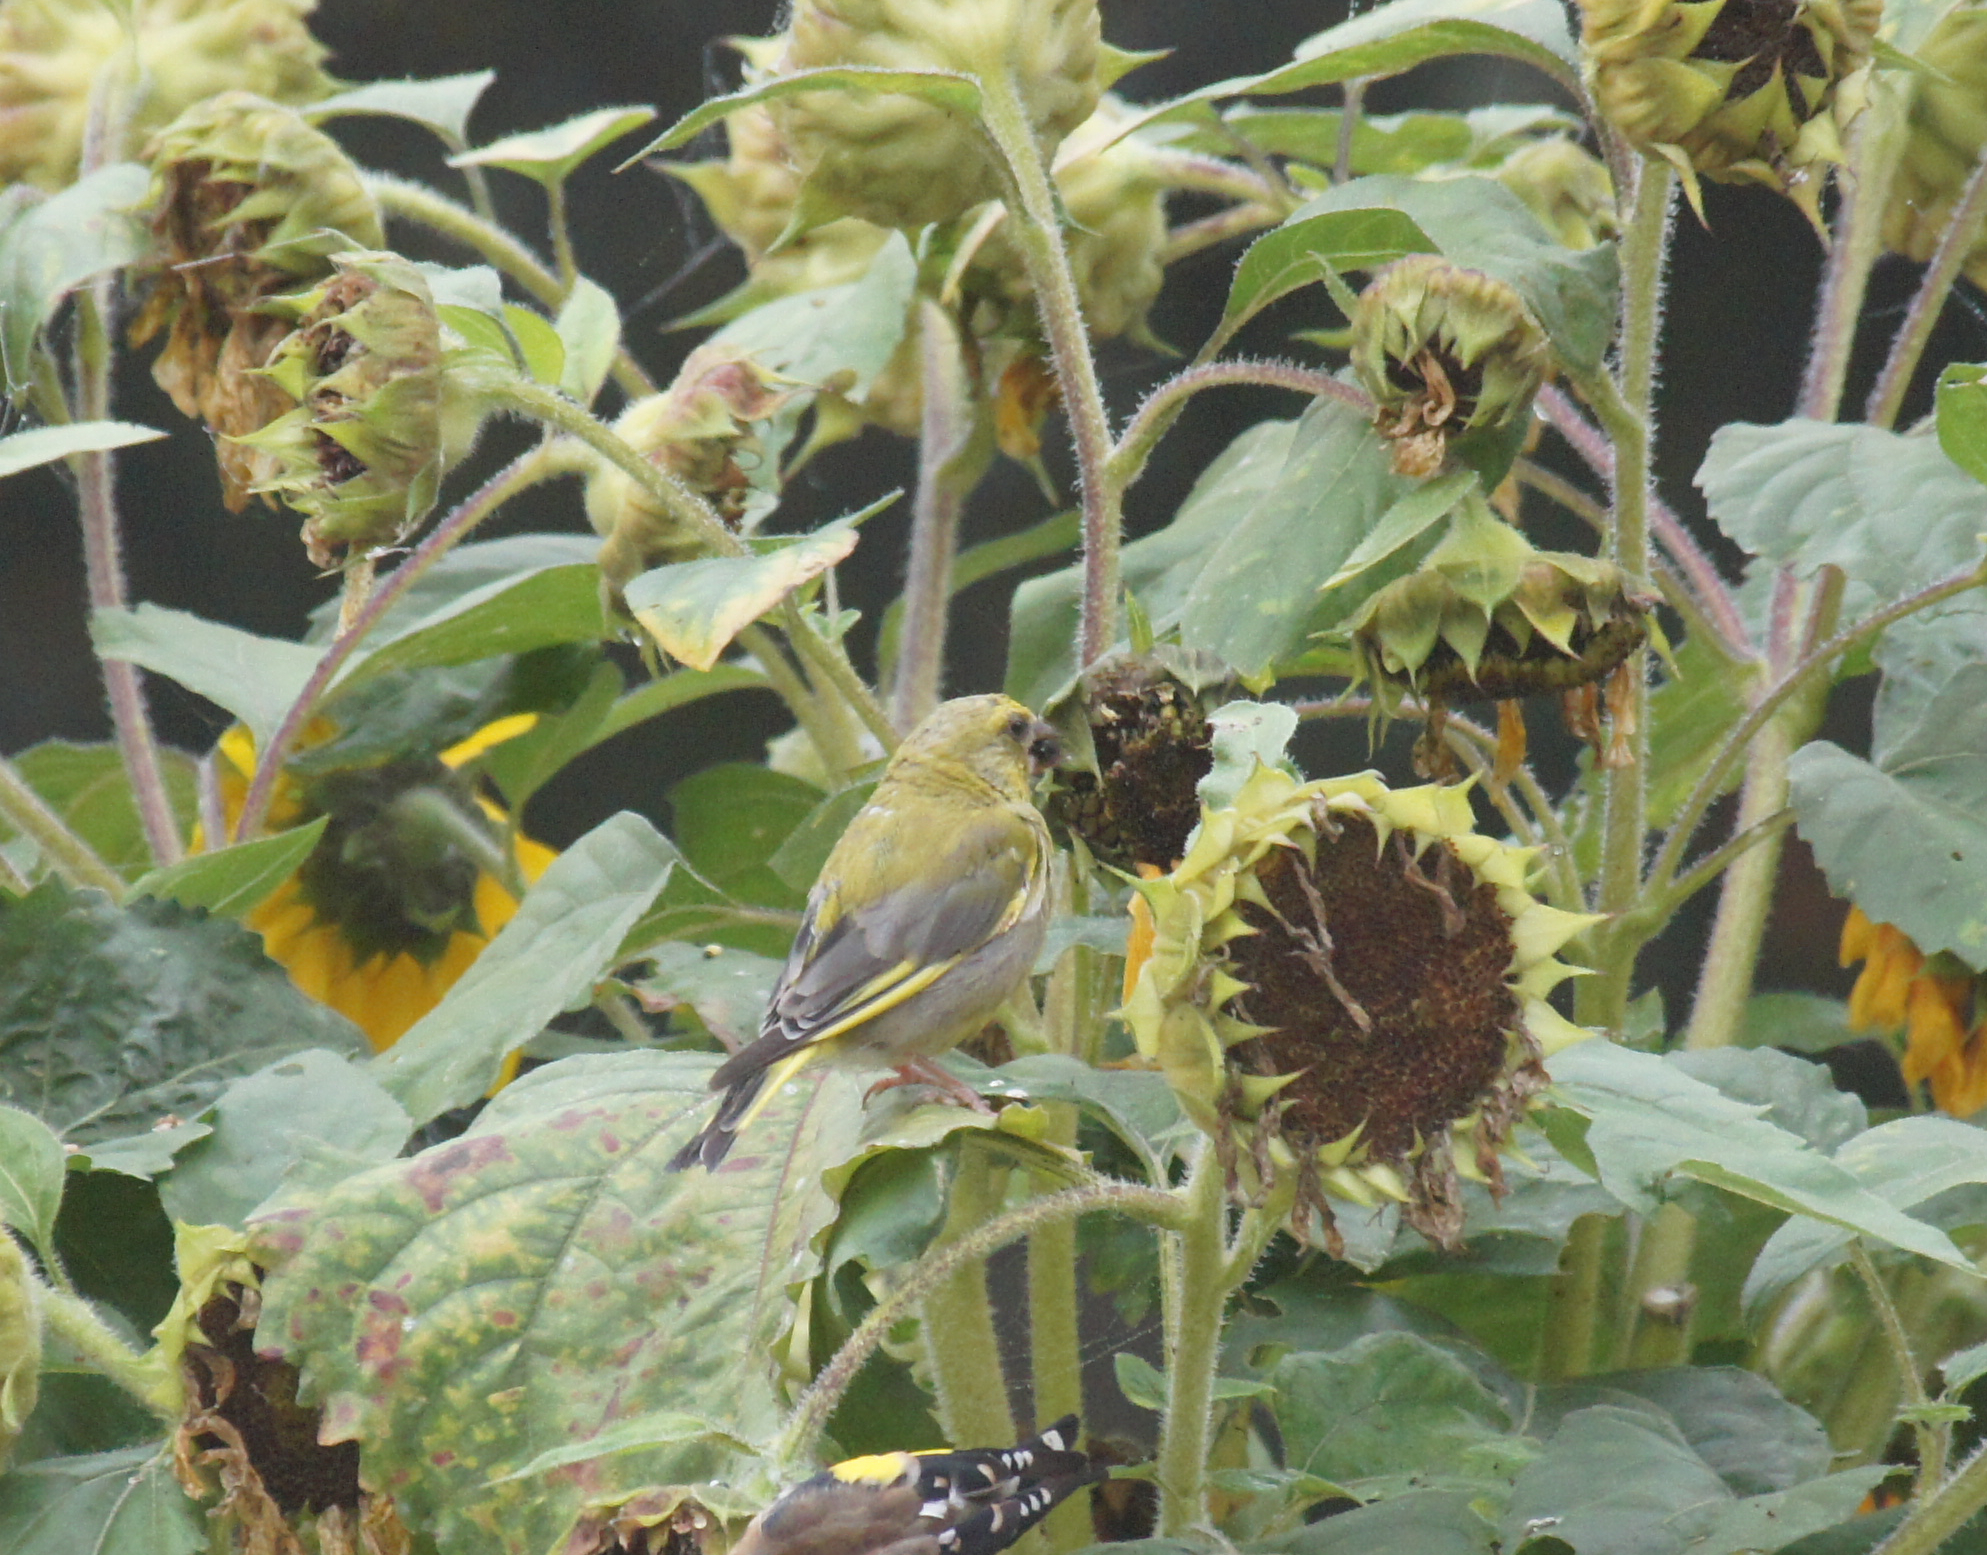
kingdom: Plantae
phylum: Tracheophyta
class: Liliopsida
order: Poales
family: Poaceae
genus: Chloris
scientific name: Chloris chloris
